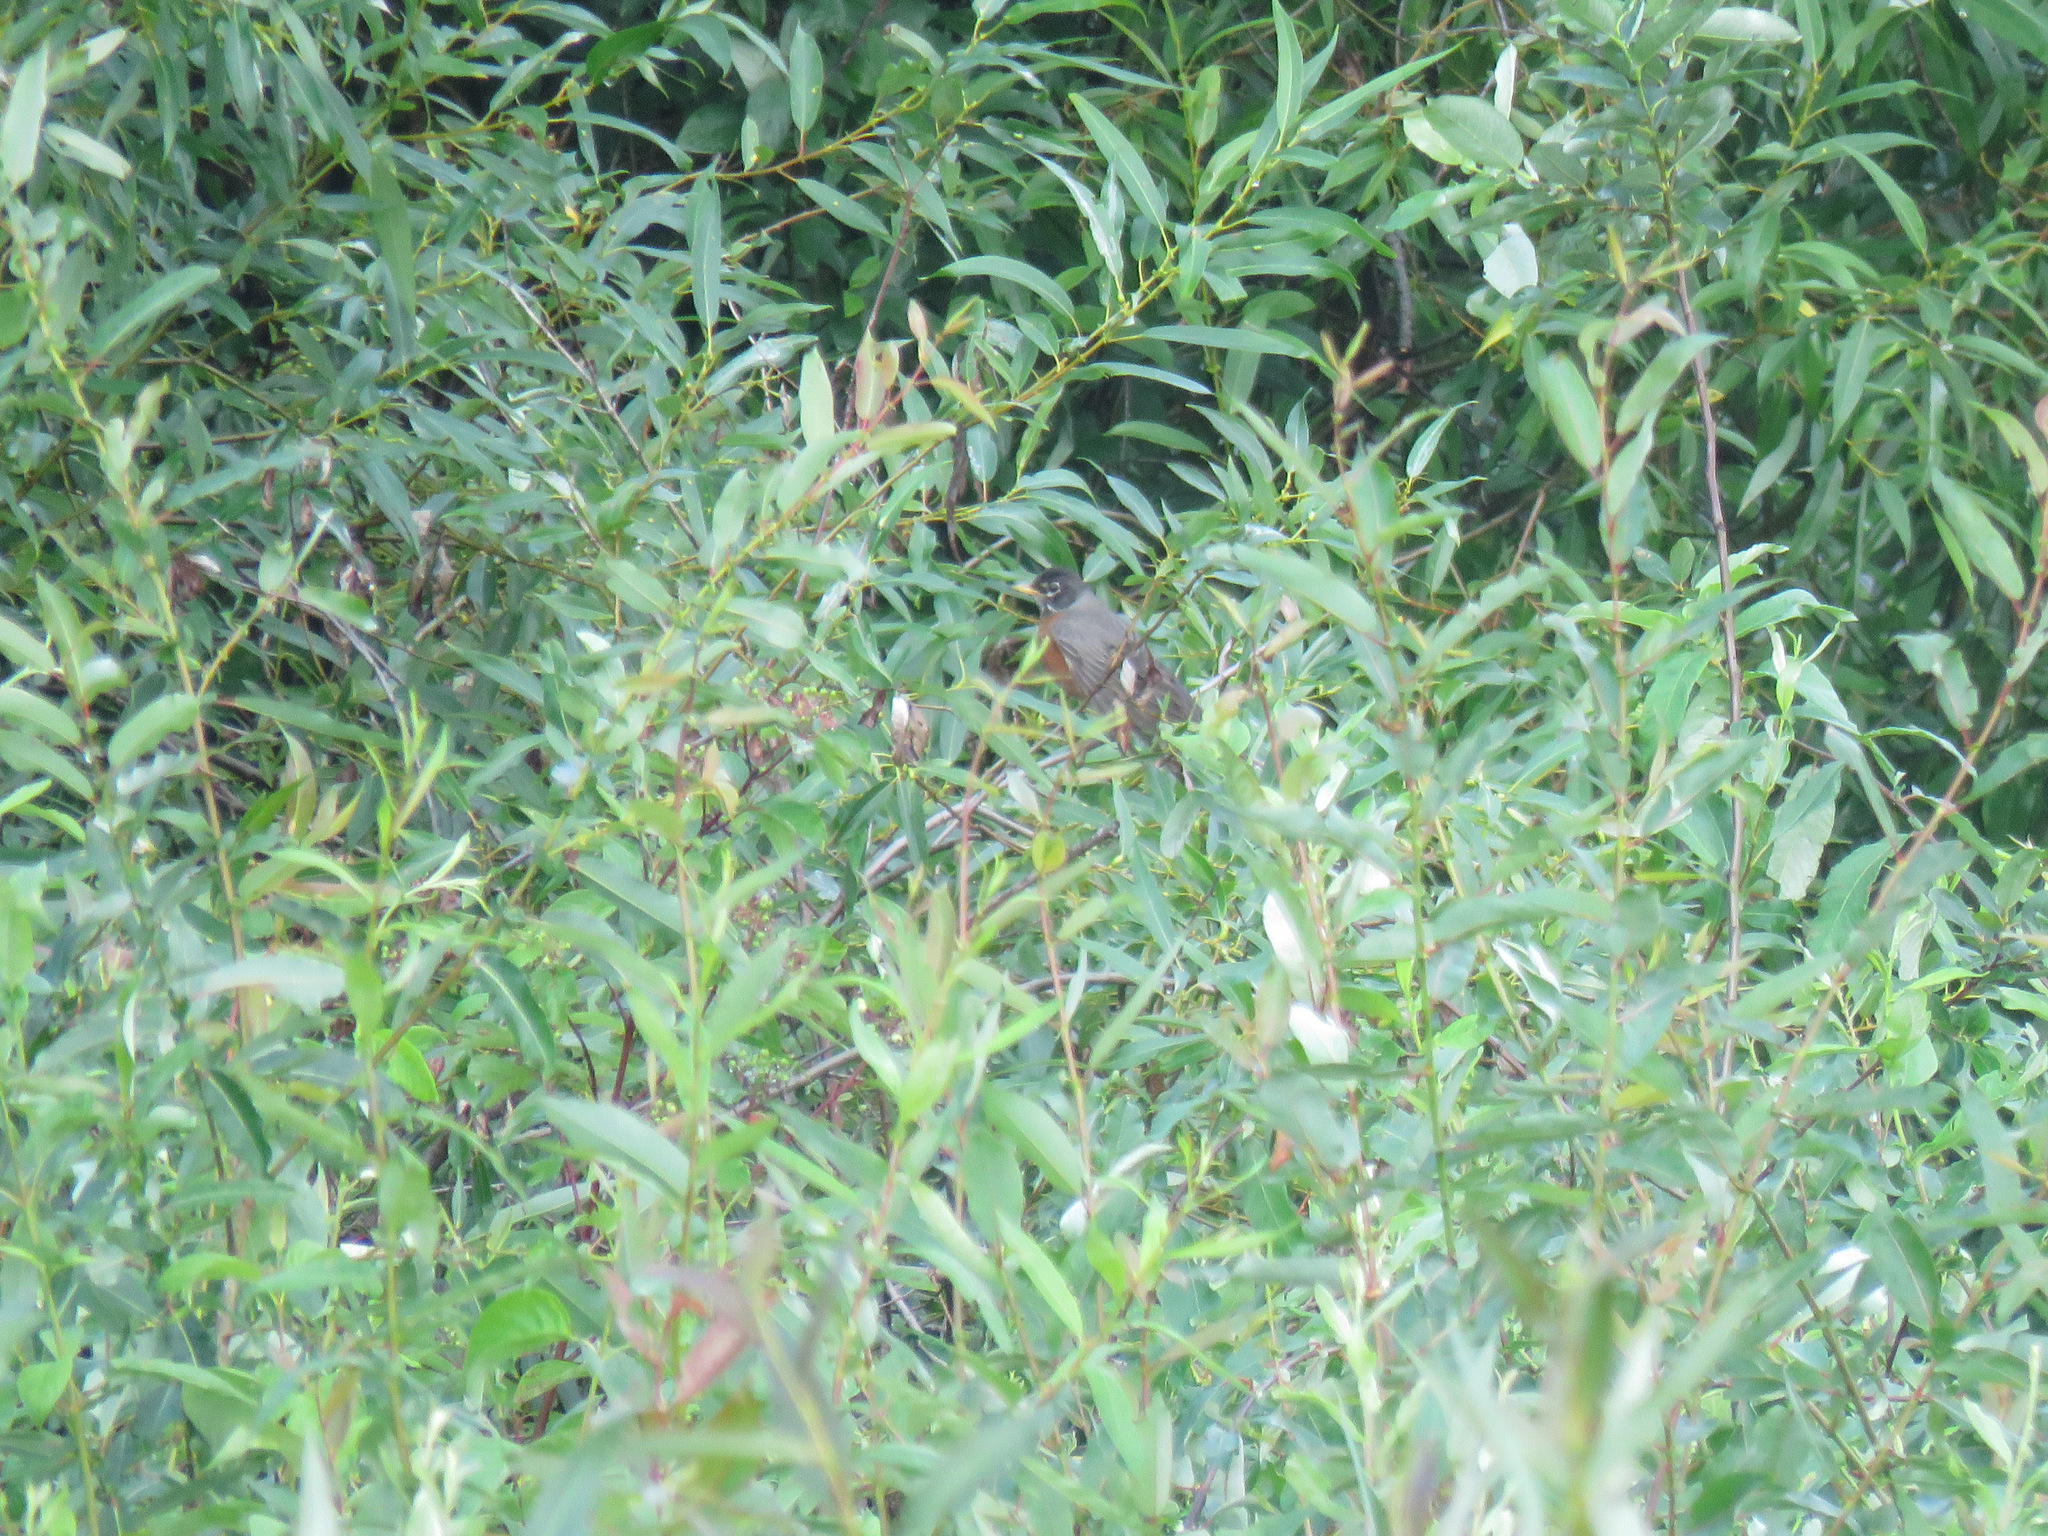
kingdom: Animalia
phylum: Chordata
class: Aves
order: Passeriformes
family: Turdidae
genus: Turdus
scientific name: Turdus migratorius
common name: American robin
